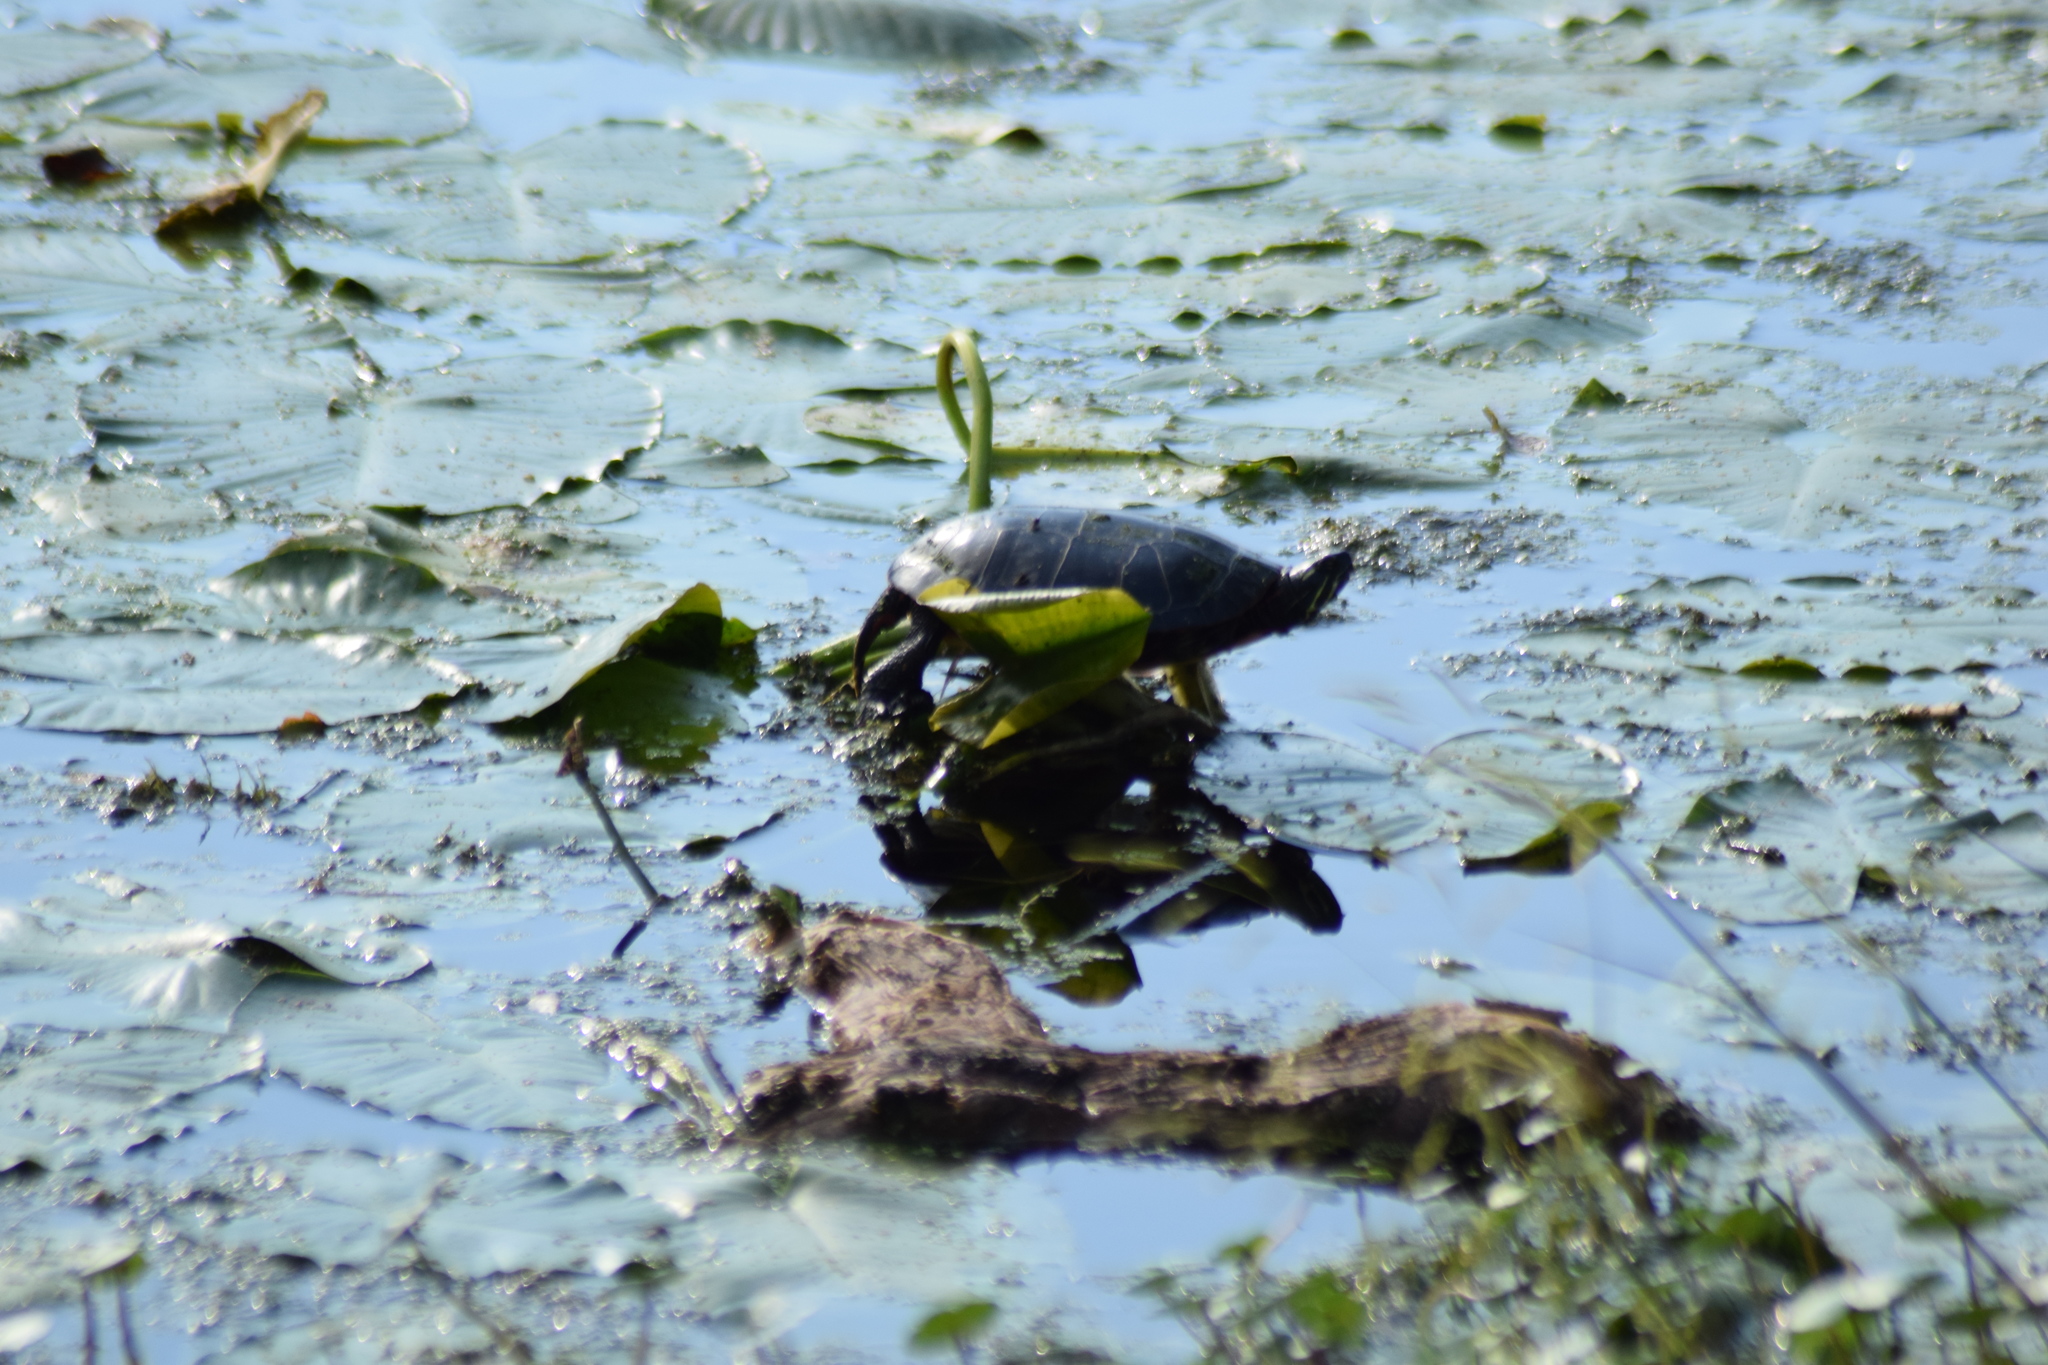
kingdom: Animalia
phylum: Chordata
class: Testudines
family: Emydidae
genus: Chrysemys
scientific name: Chrysemys picta
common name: Painted turtle
